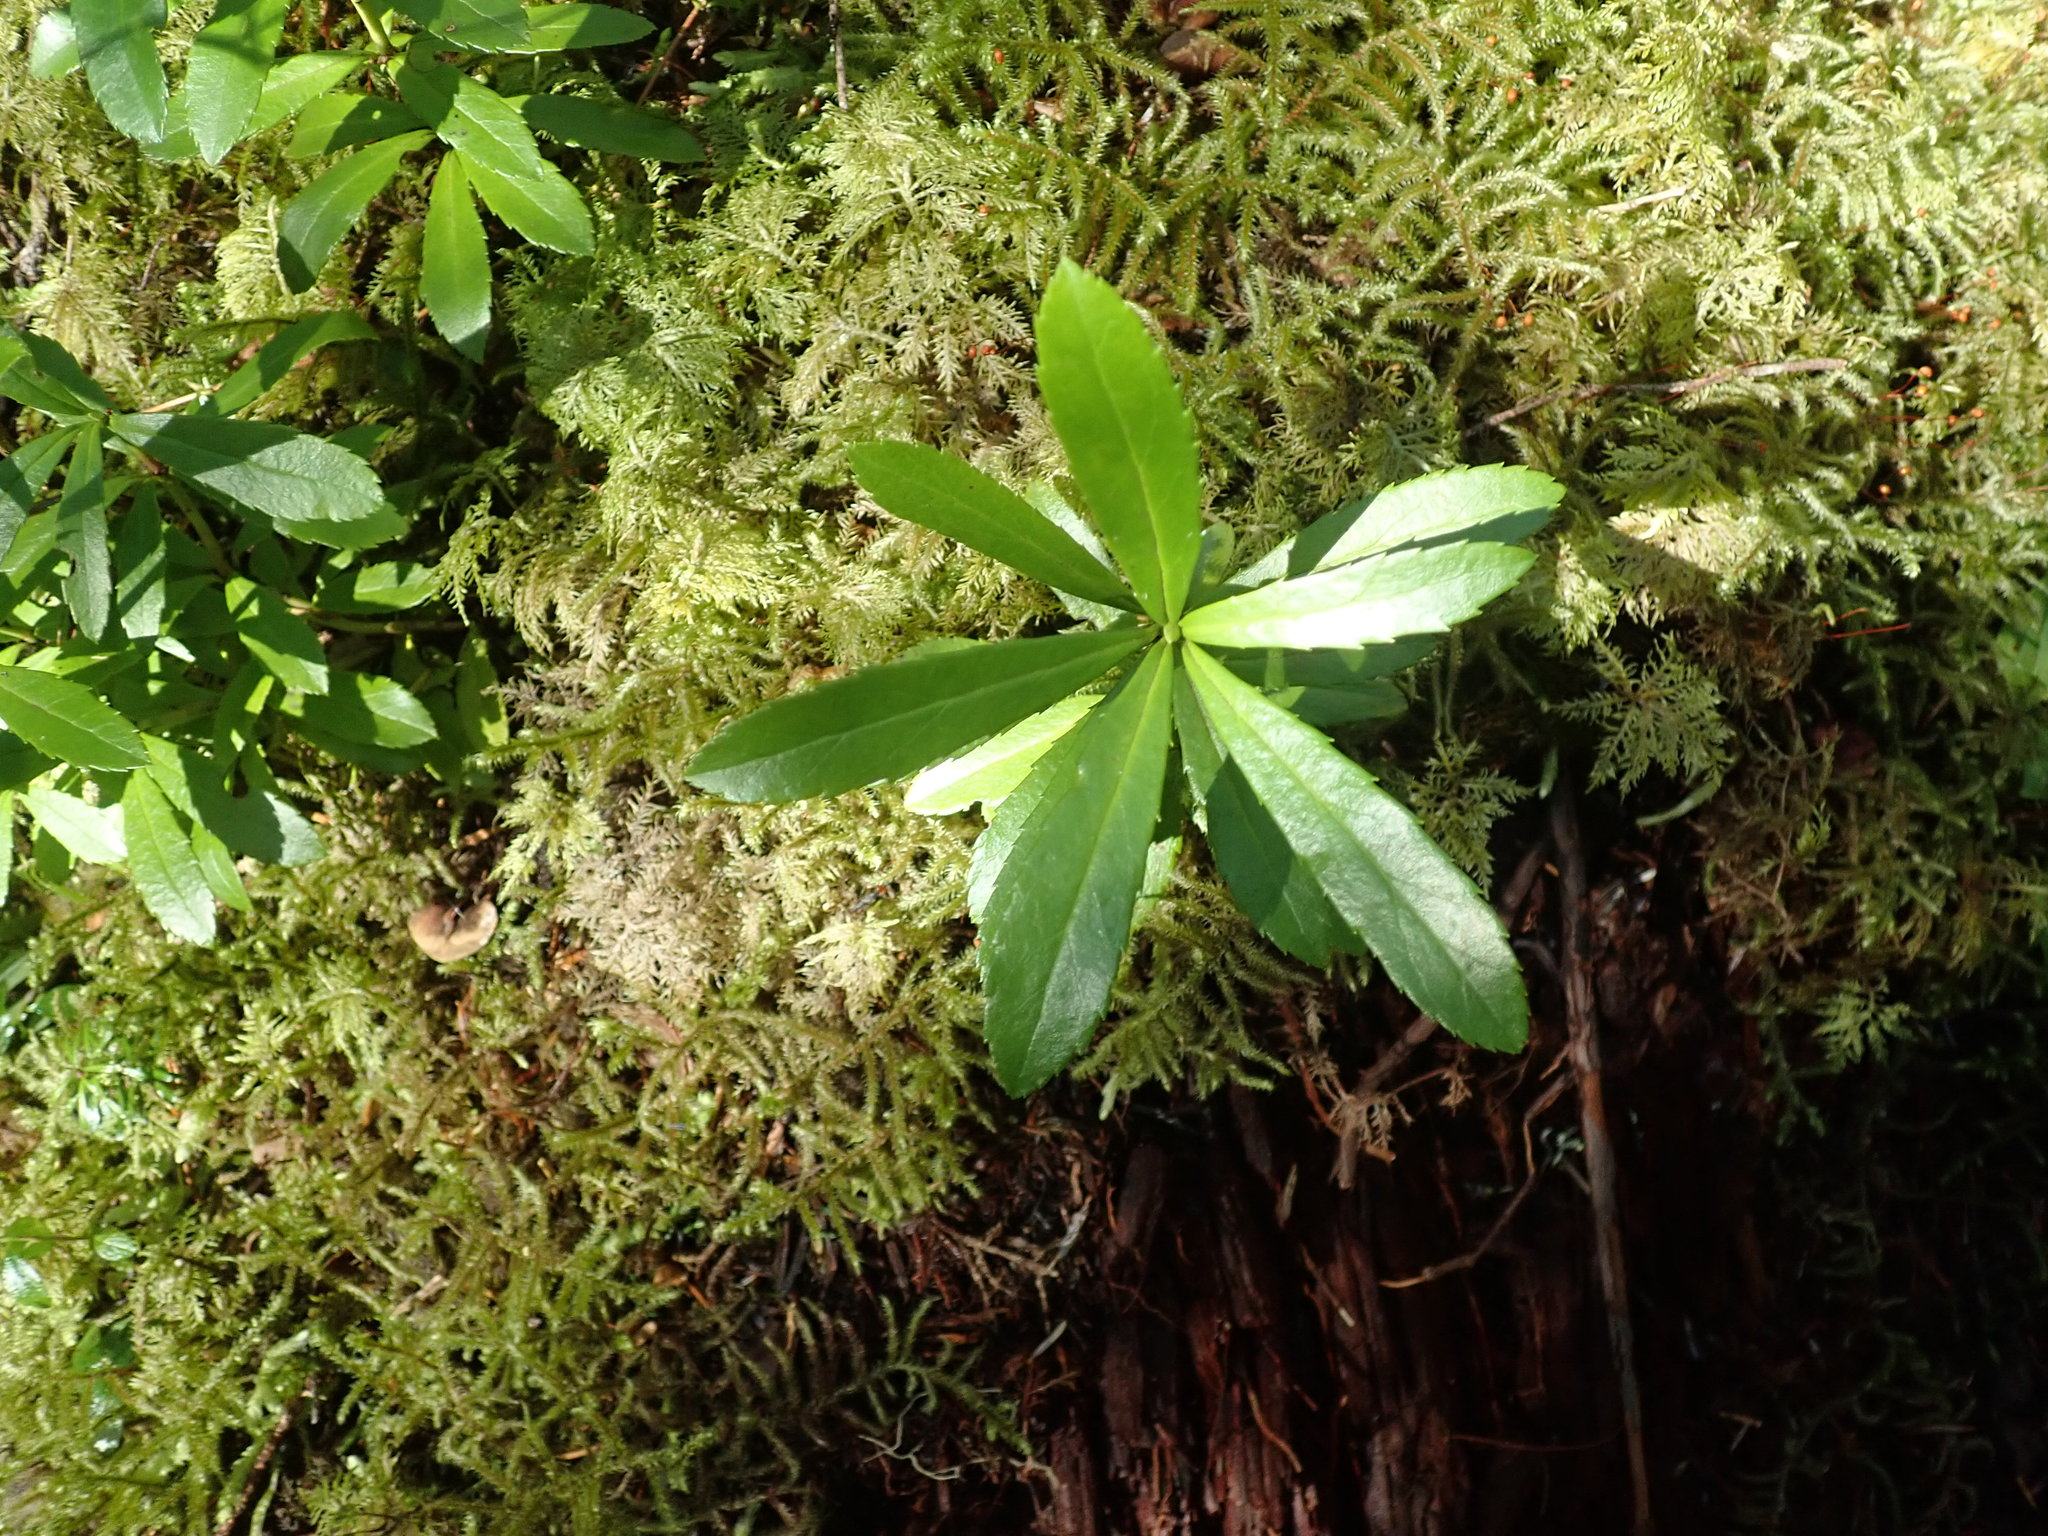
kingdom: Plantae
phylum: Tracheophyta
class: Magnoliopsida
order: Ericales
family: Ericaceae
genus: Chimaphila
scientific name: Chimaphila umbellata
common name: Pipsissewa
